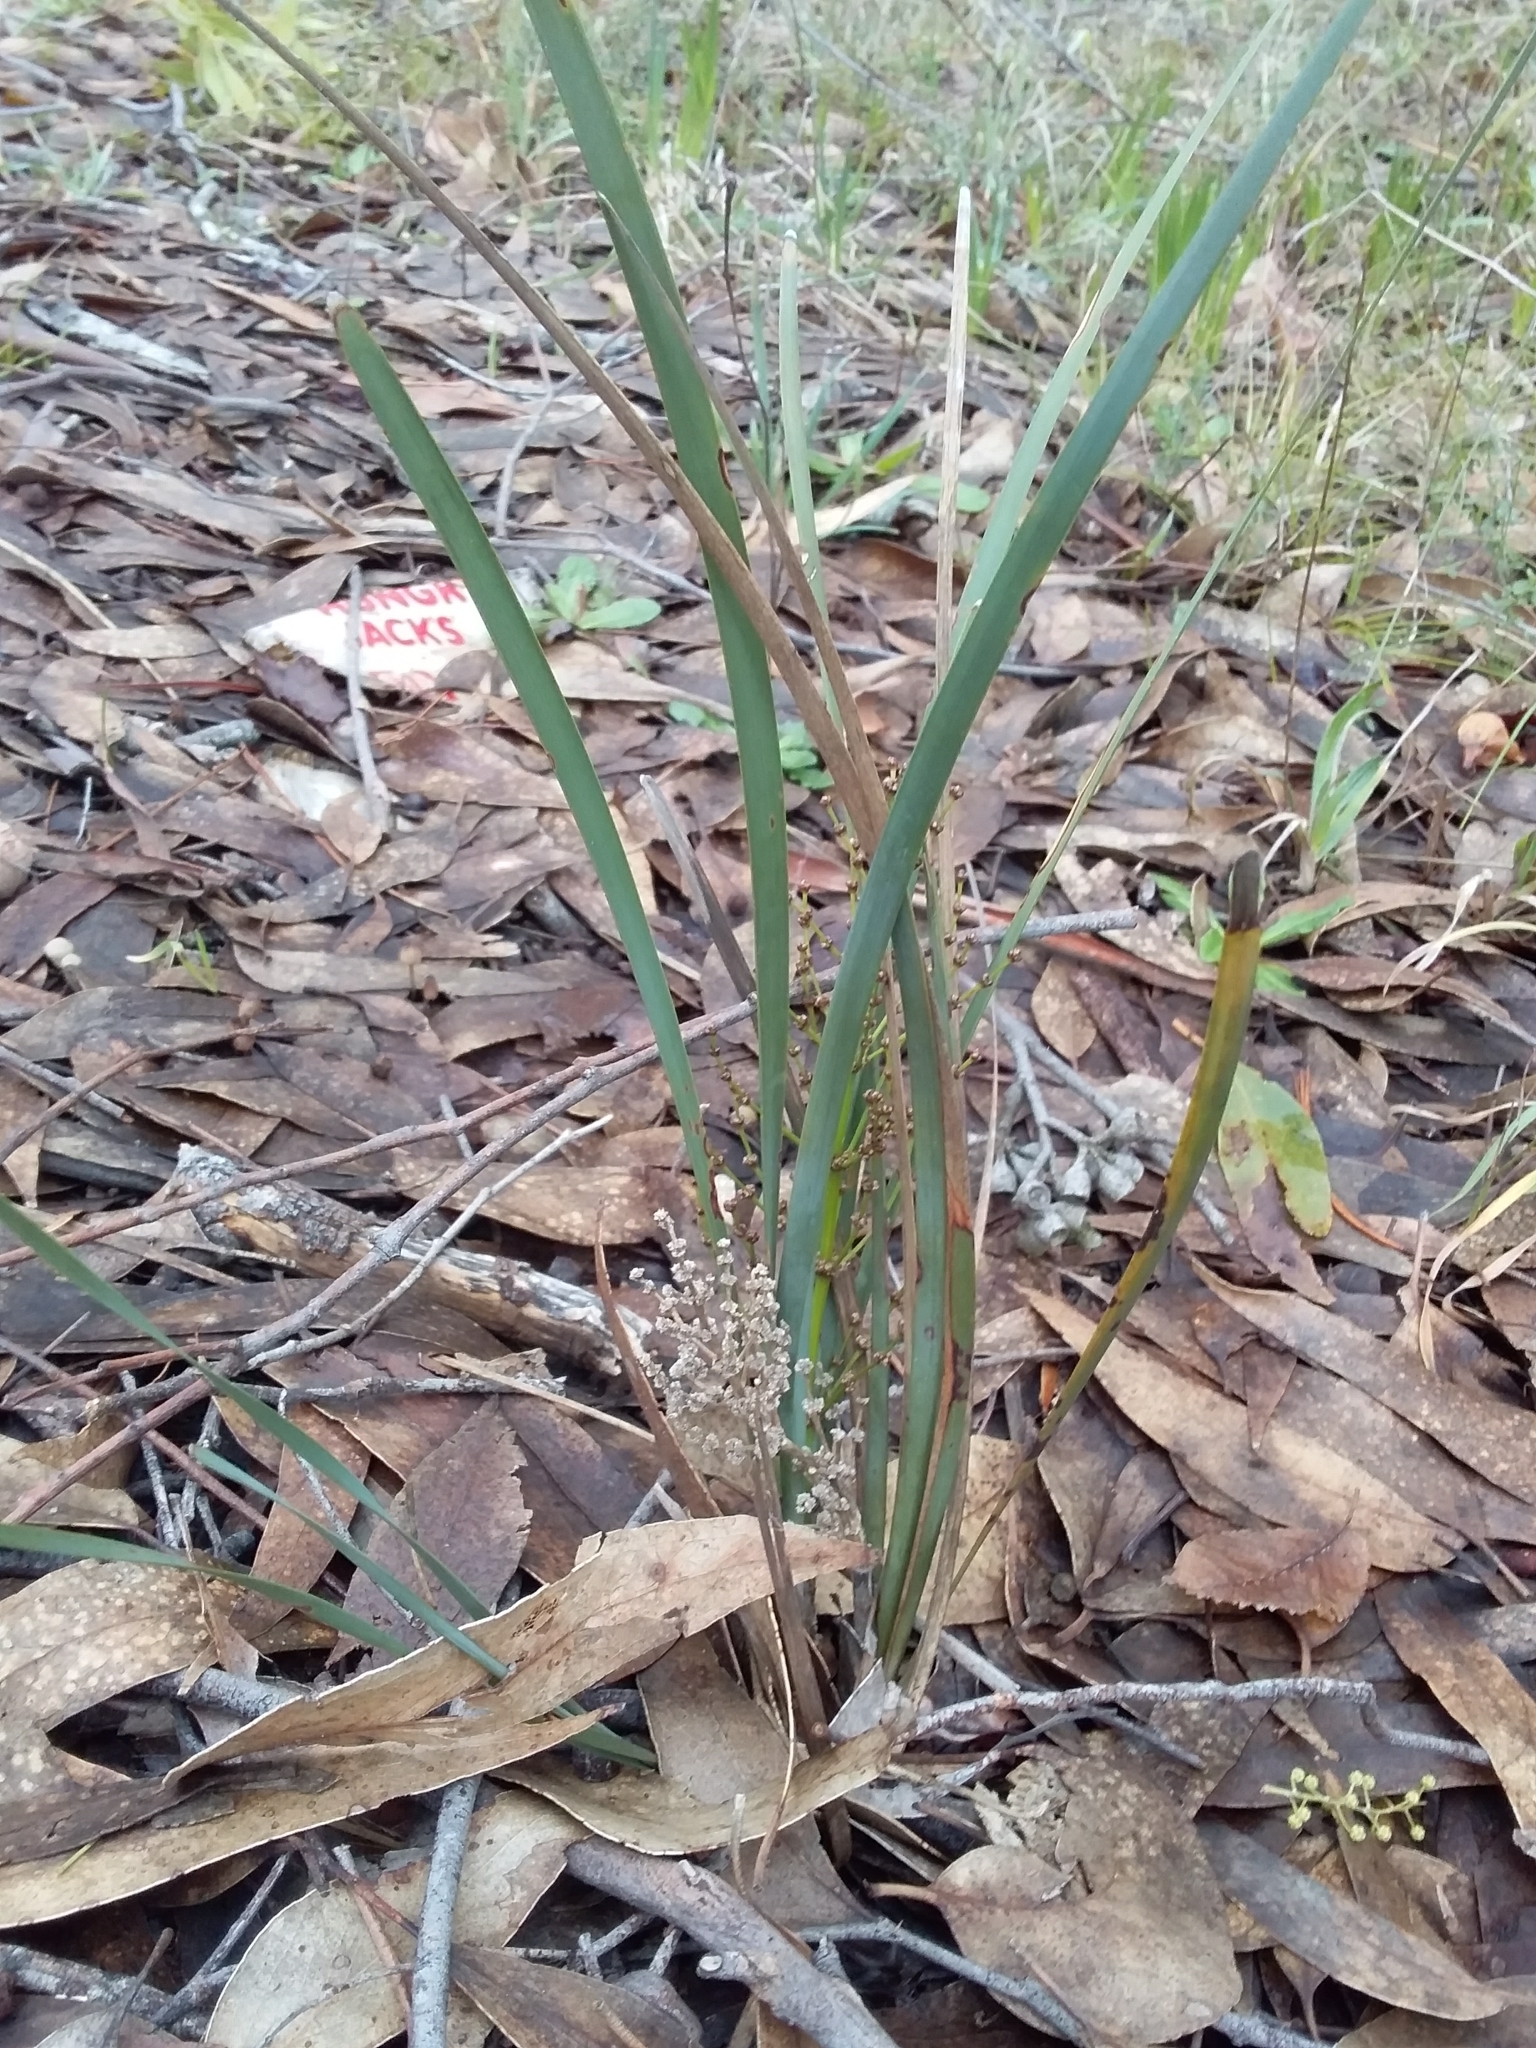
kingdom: Plantae
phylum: Tracheophyta
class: Liliopsida
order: Asparagales
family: Asparagaceae
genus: Lomandra
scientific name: Lomandra multiflora
